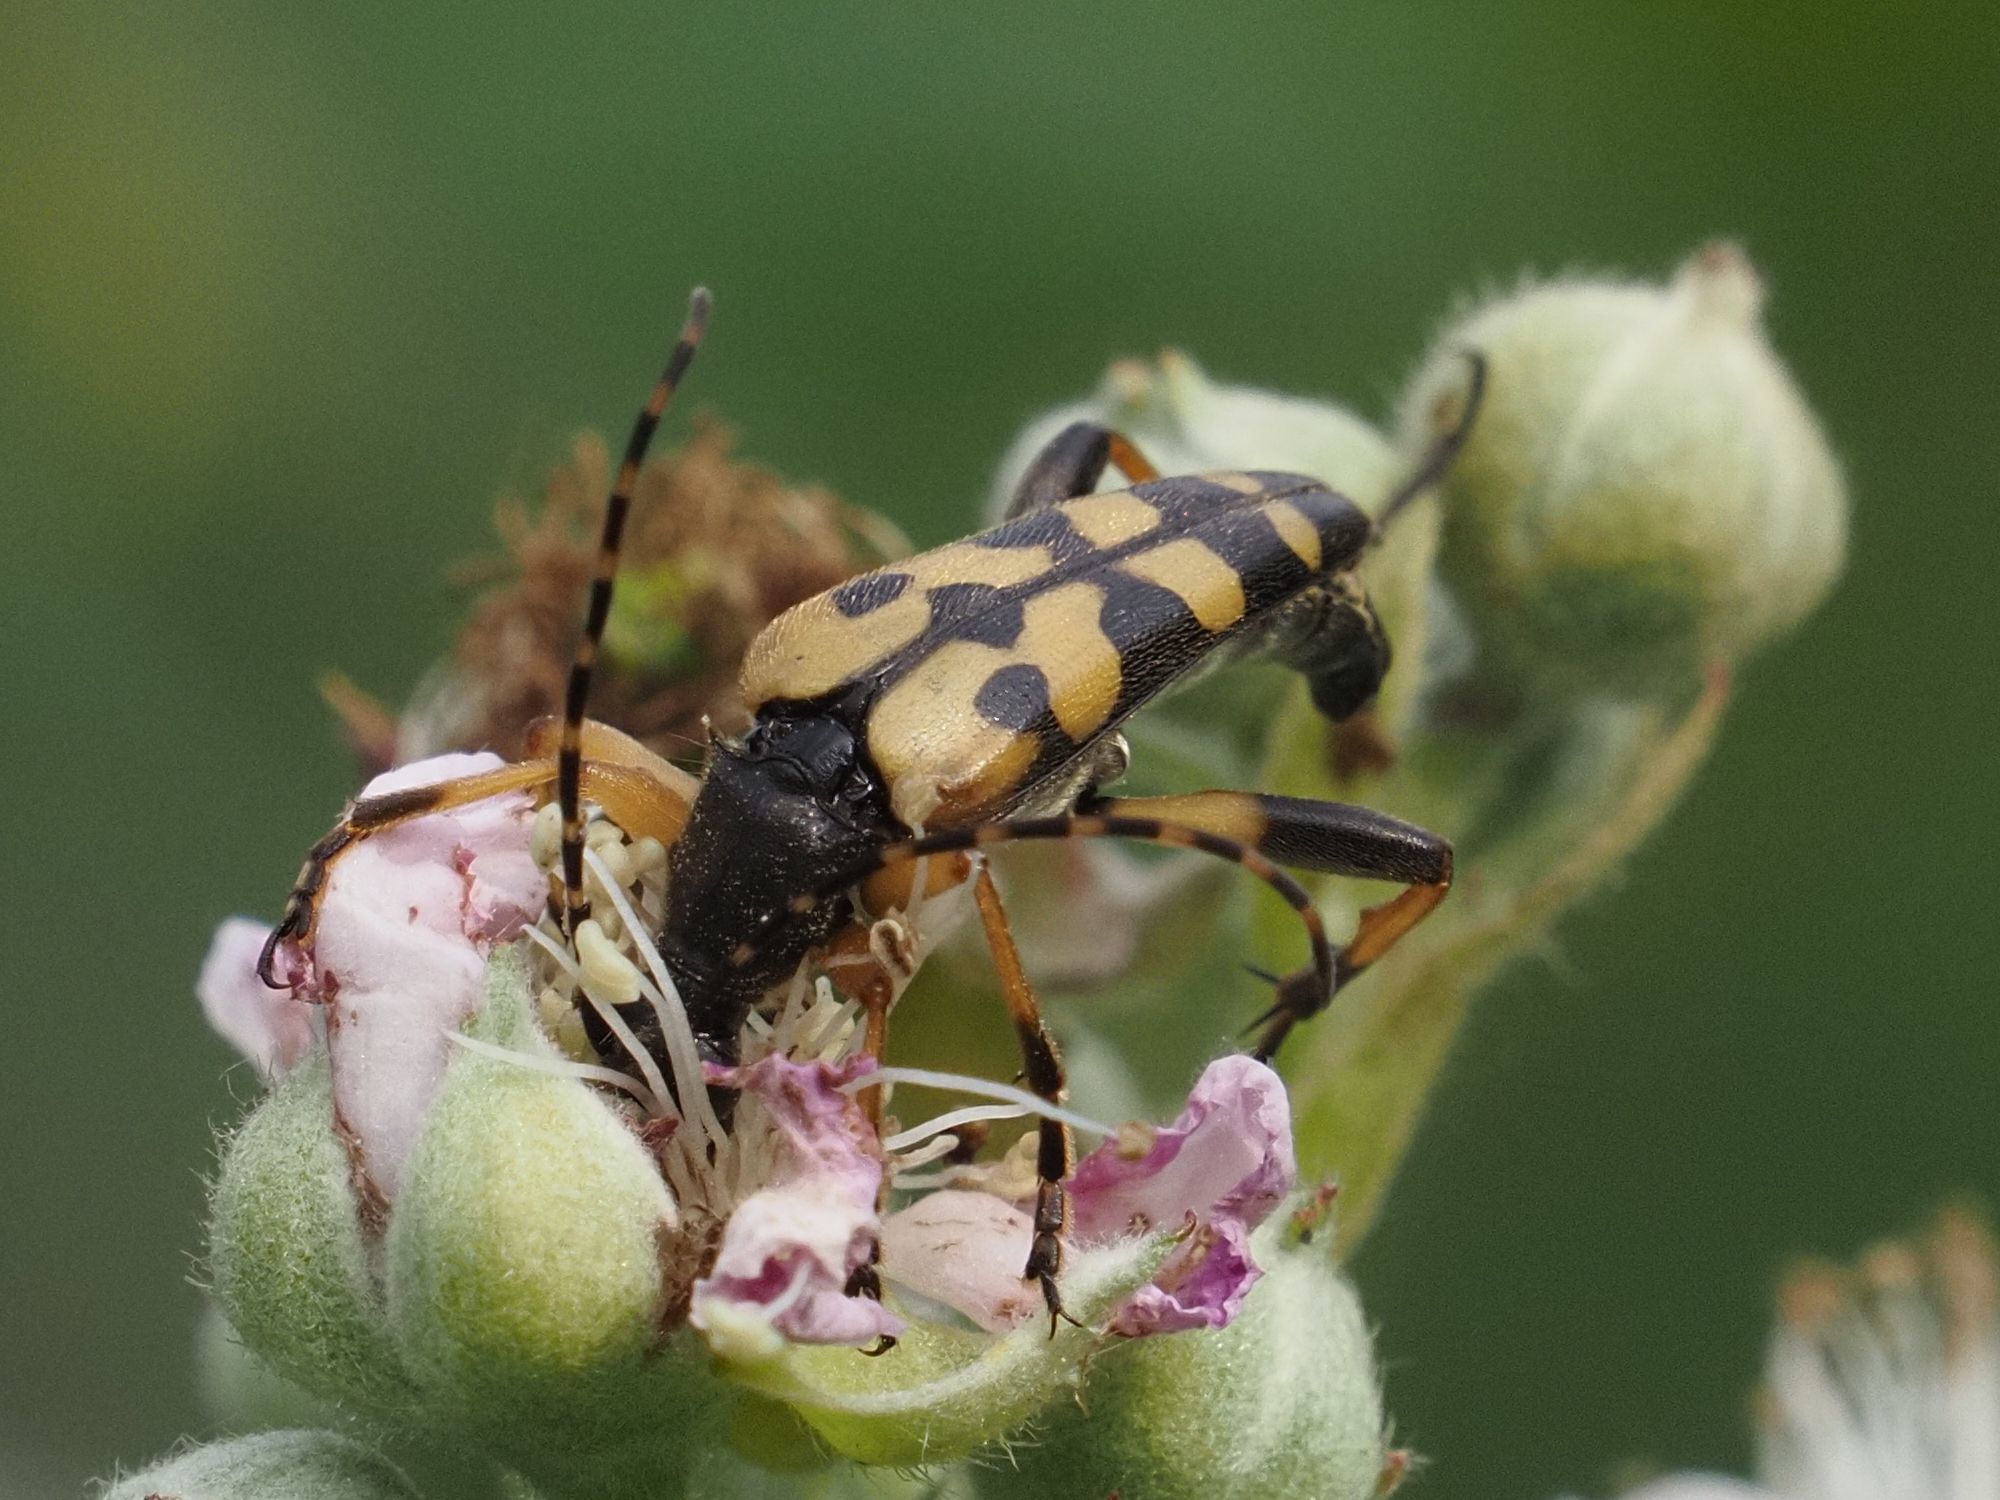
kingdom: Animalia
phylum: Arthropoda
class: Insecta
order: Coleoptera
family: Cerambycidae
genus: Rutpela
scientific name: Rutpela maculata
